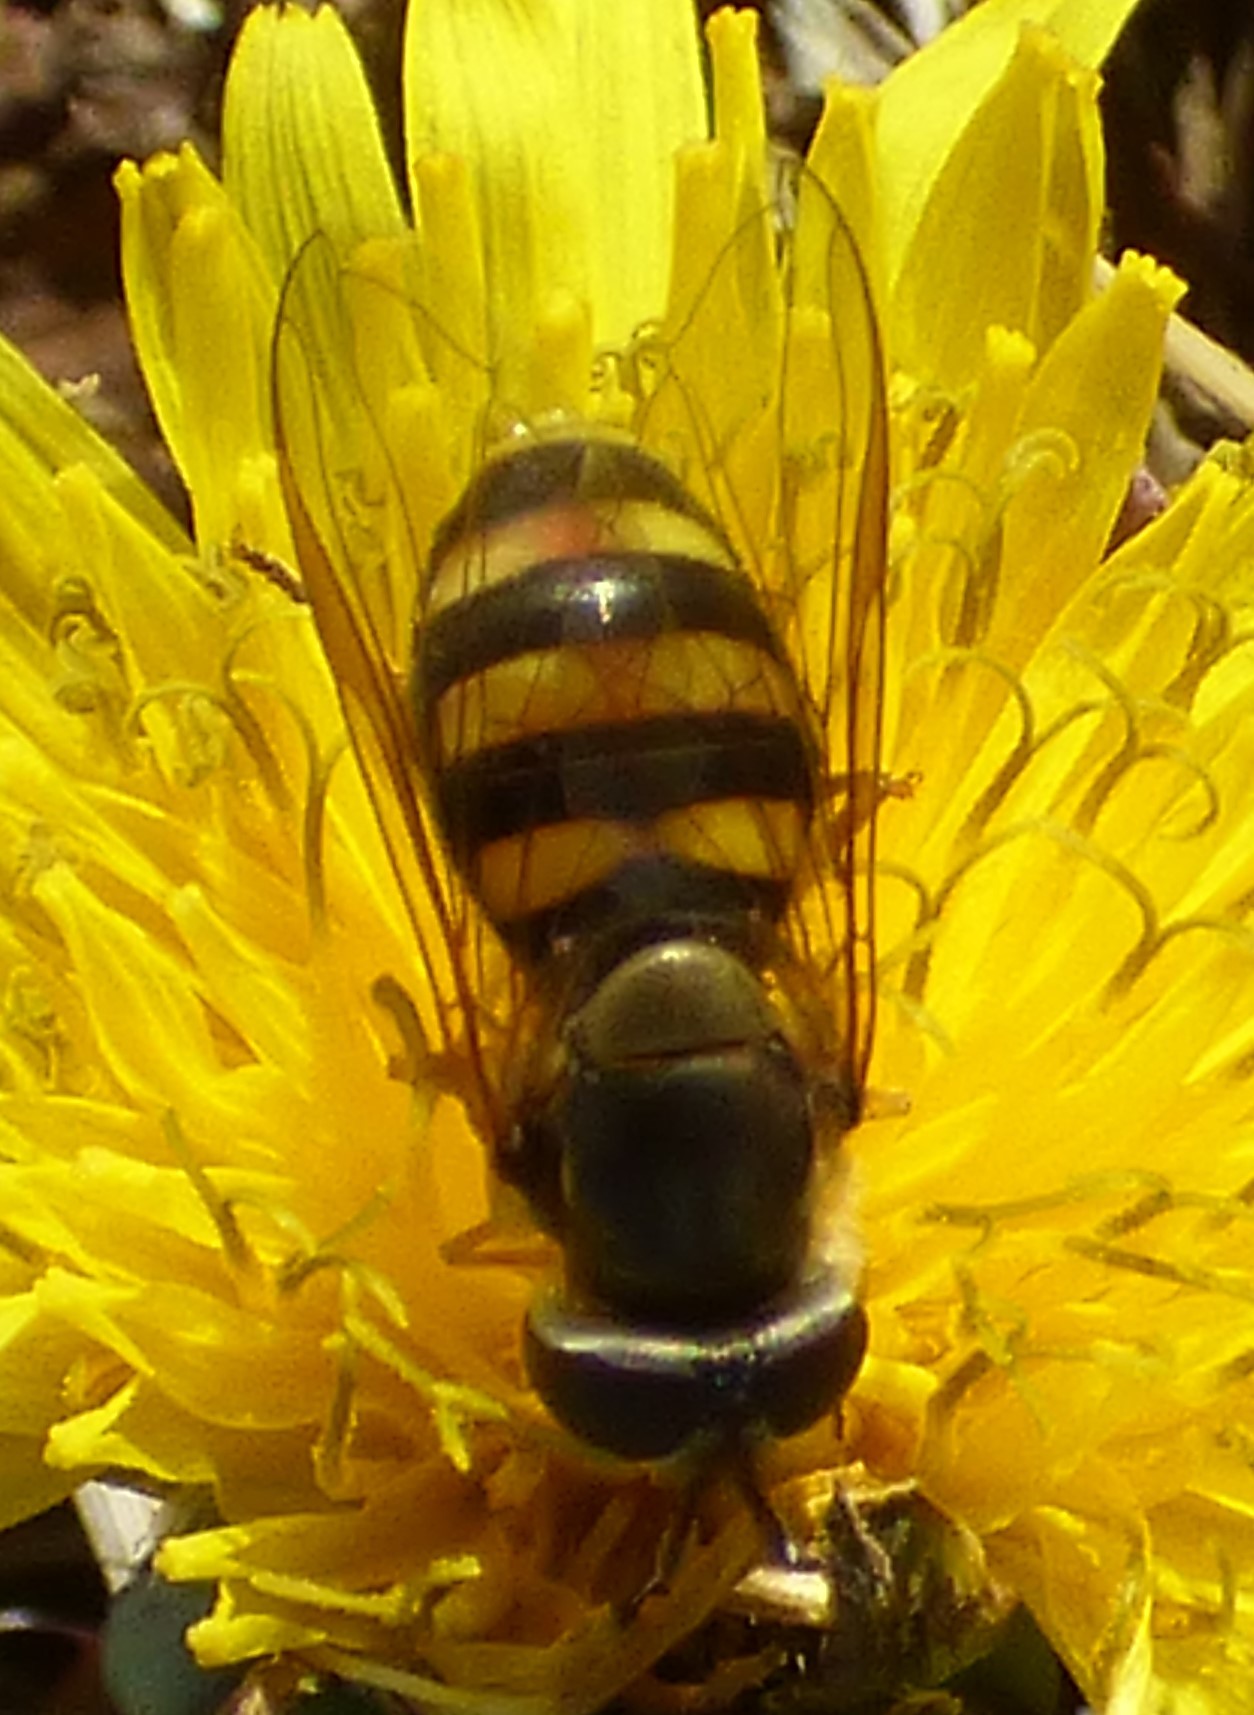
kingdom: Animalia
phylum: Arthropoda
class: Insecta
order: Diptera
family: Syrphidae
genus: Eupeodes
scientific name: Eupeodes
